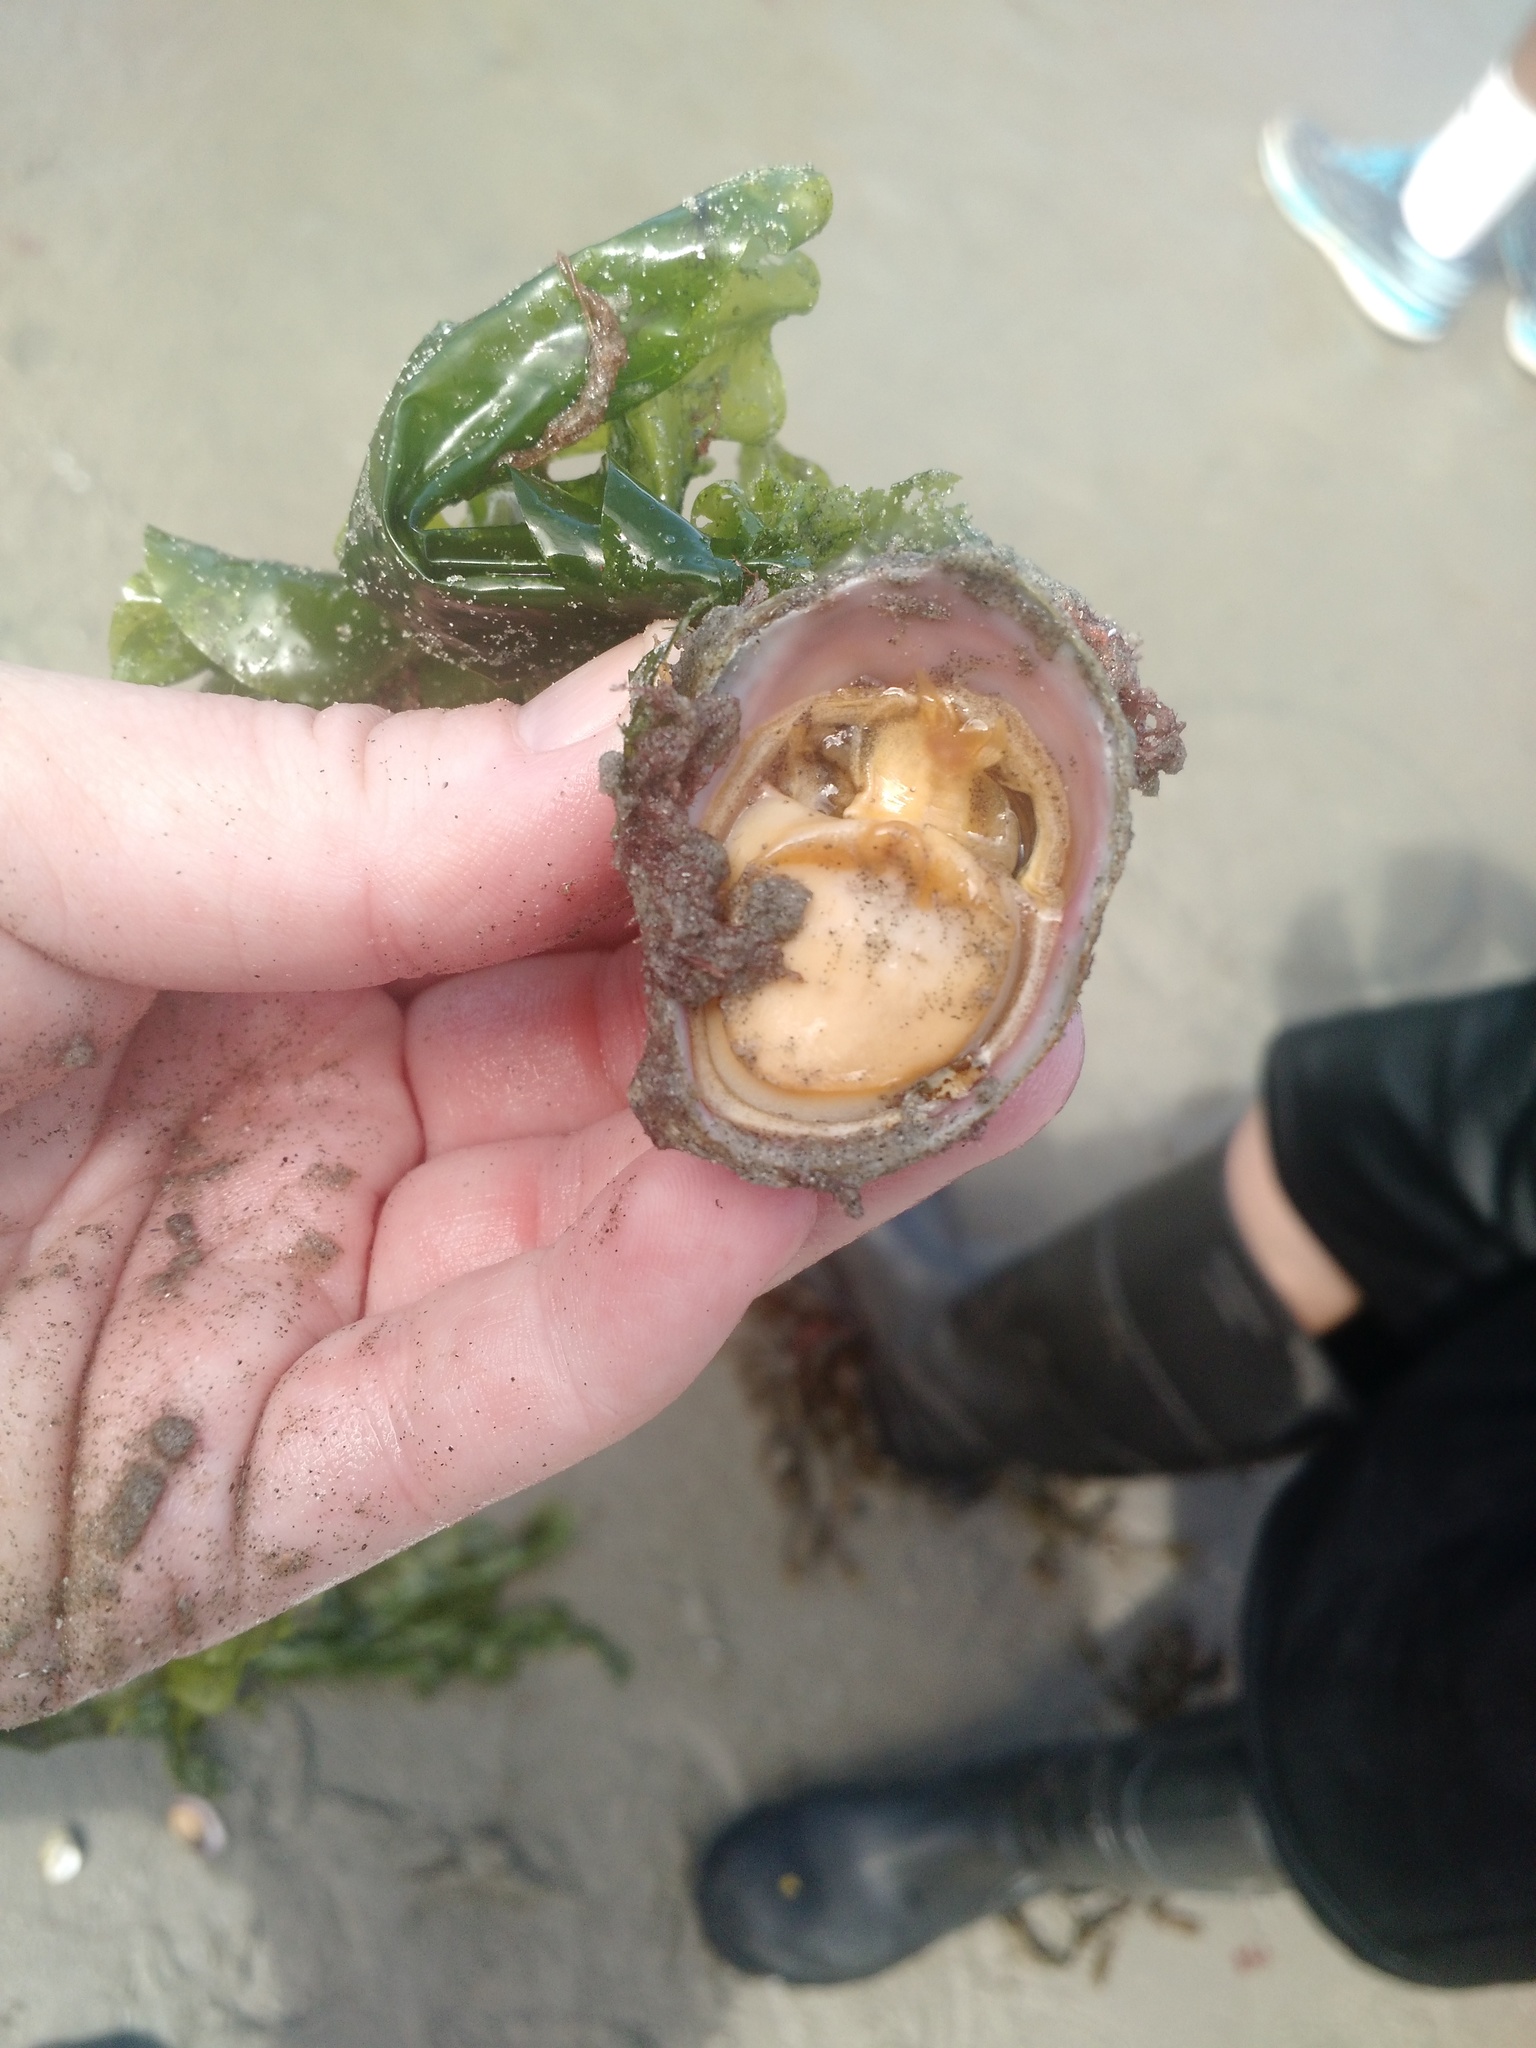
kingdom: Animalia
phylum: Mollusca
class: Gastropoda
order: Littorinimorpha
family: Calyptraeidae
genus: Crepidula
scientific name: Crepidula fornicata
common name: Slipper limpet
